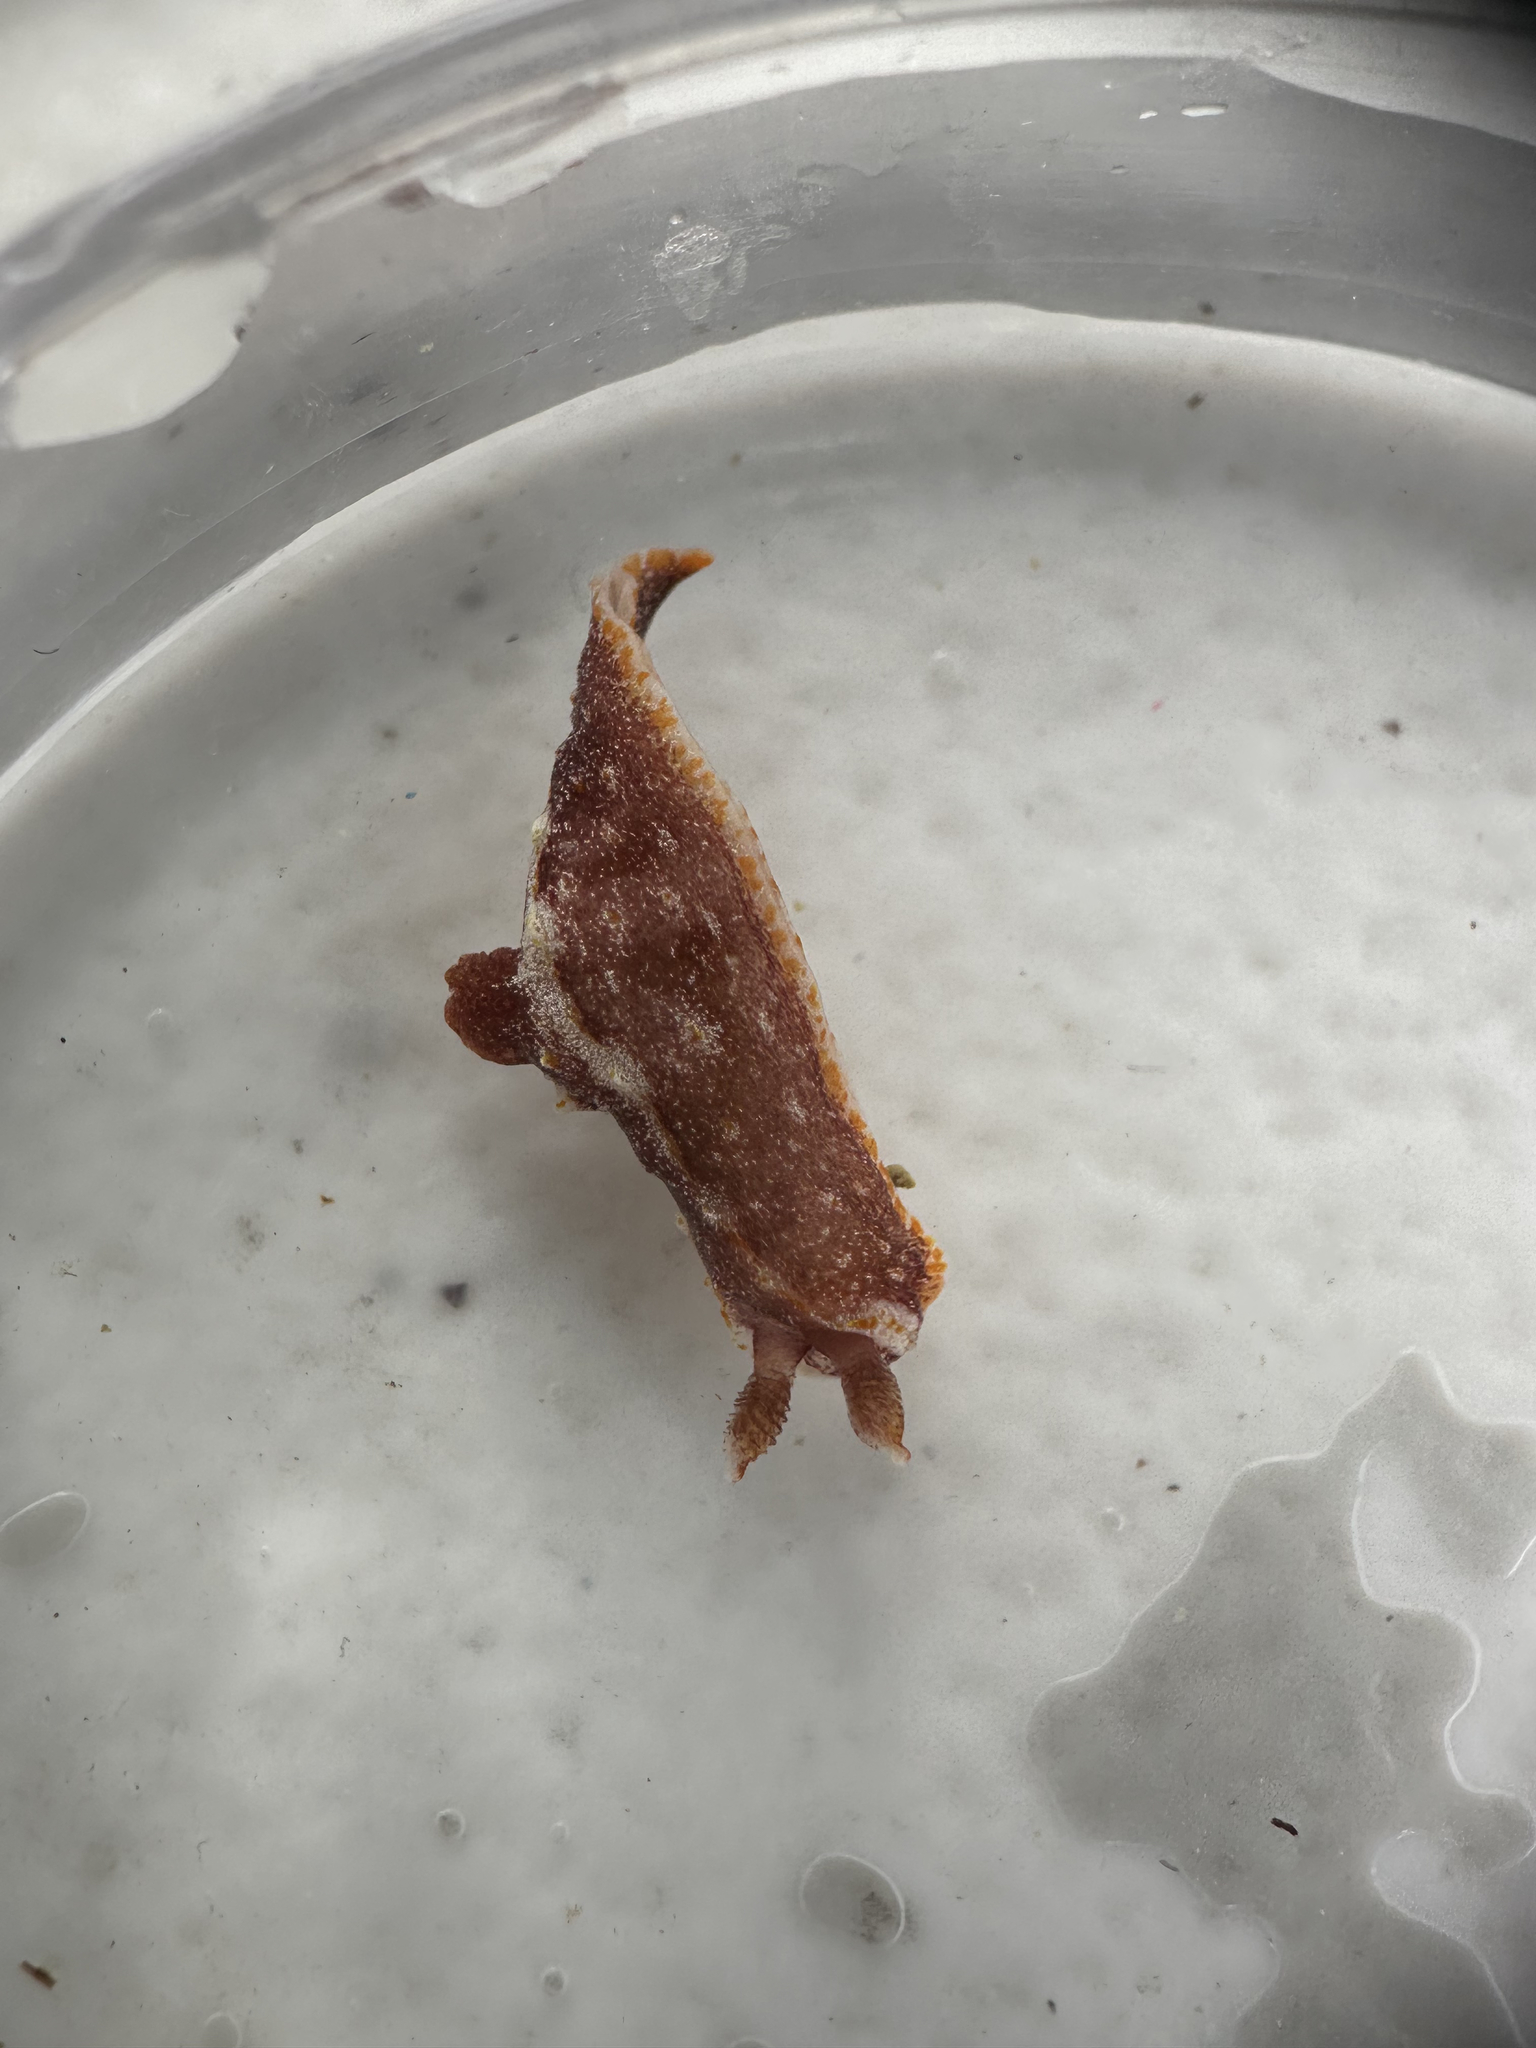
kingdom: Animalia
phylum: Mollusca
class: Gastropoda
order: Nudibranchia
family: Polyceridae
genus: Polycera
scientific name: Polycera parvula
